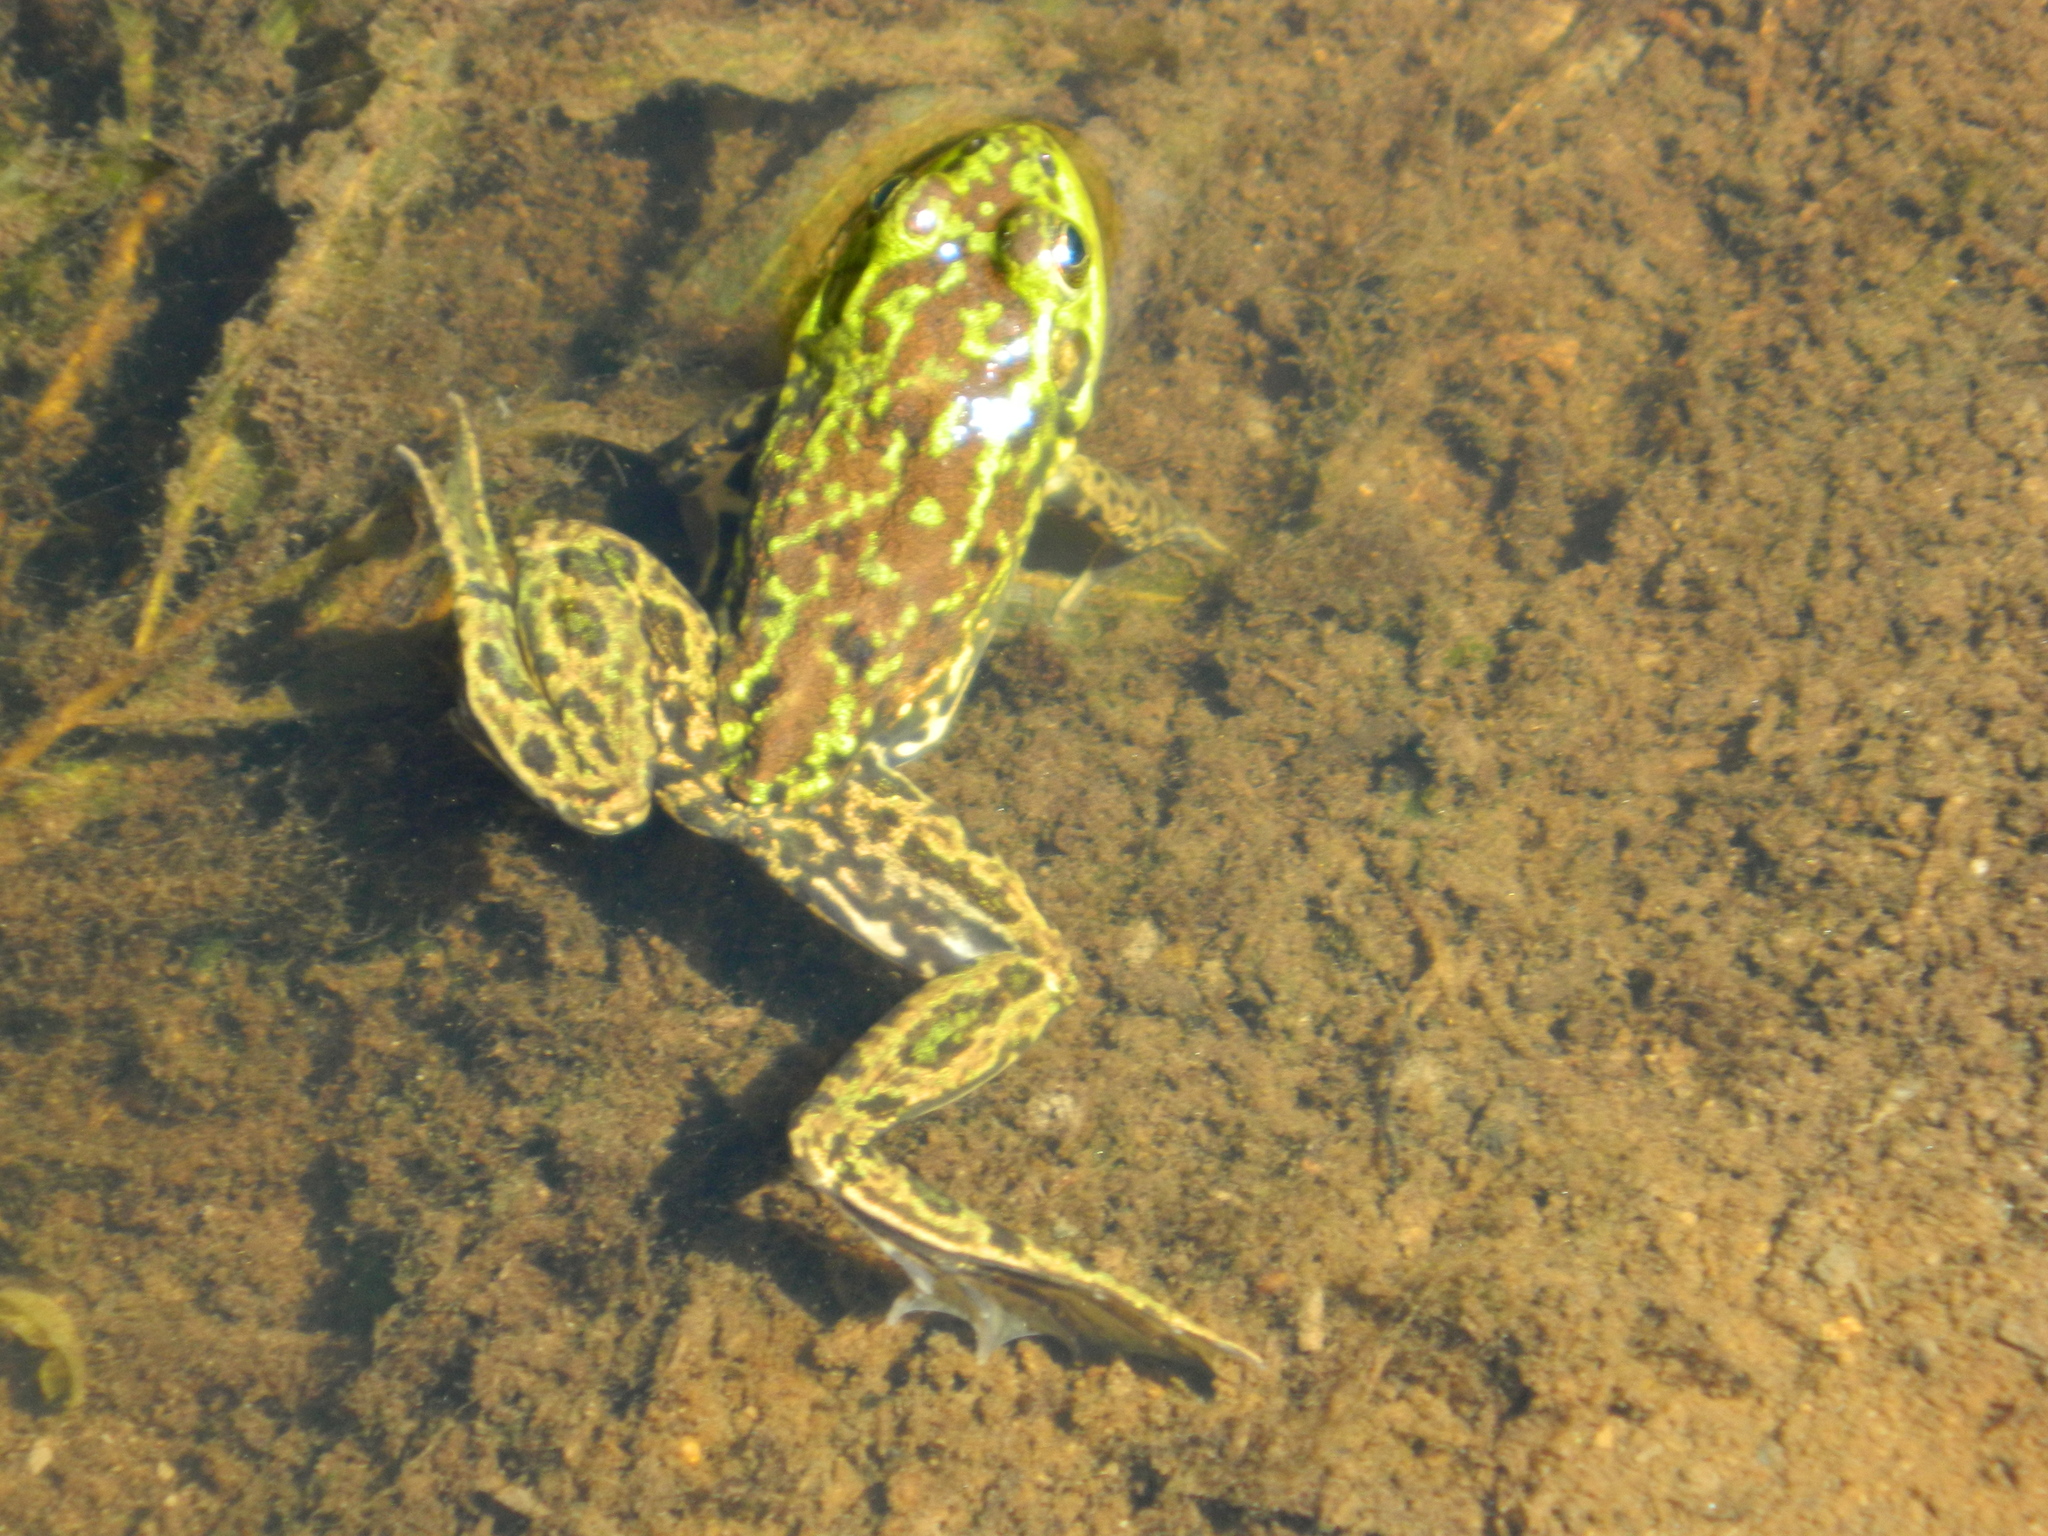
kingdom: Animalia
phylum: Chordata
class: Amphibia
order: Anura
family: Ranidae
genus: Lithobates
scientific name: Lithobates septentrionalis
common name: Mink frog
